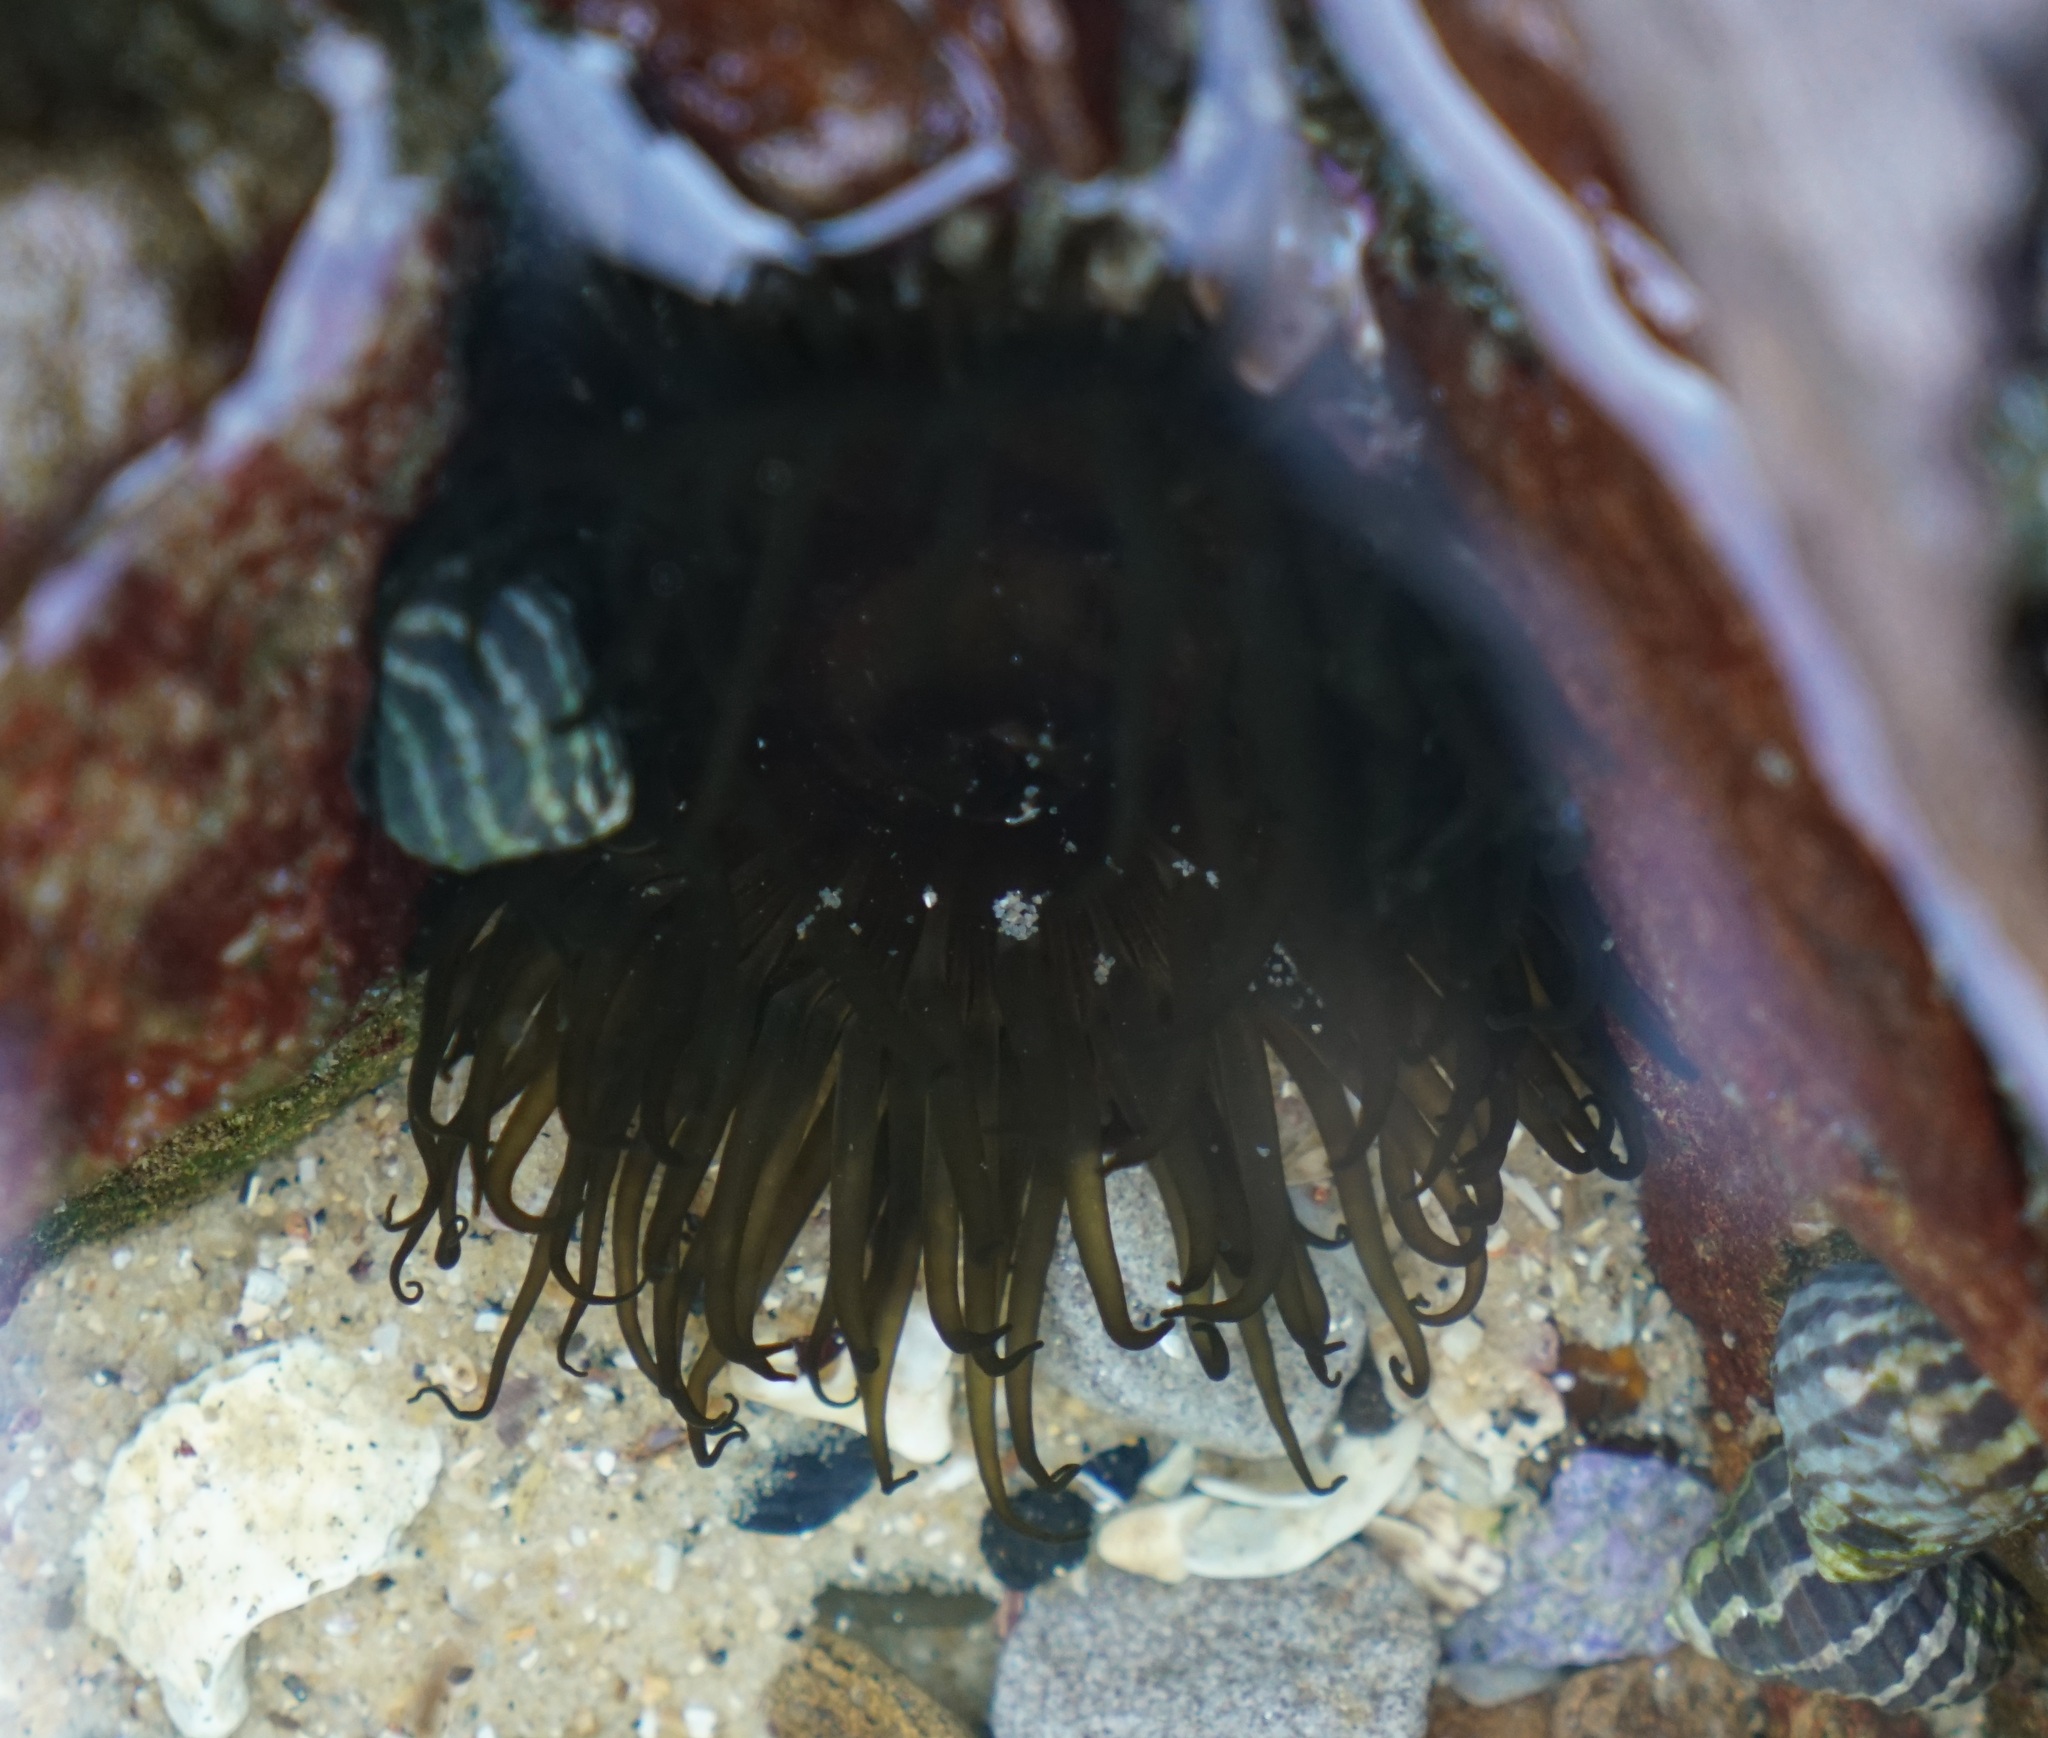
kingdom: Animalia
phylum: Cnidaria
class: Anthozoa
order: Actiniaria
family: Actiniidae
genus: Aulactinia
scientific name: Aulactinia veratra
